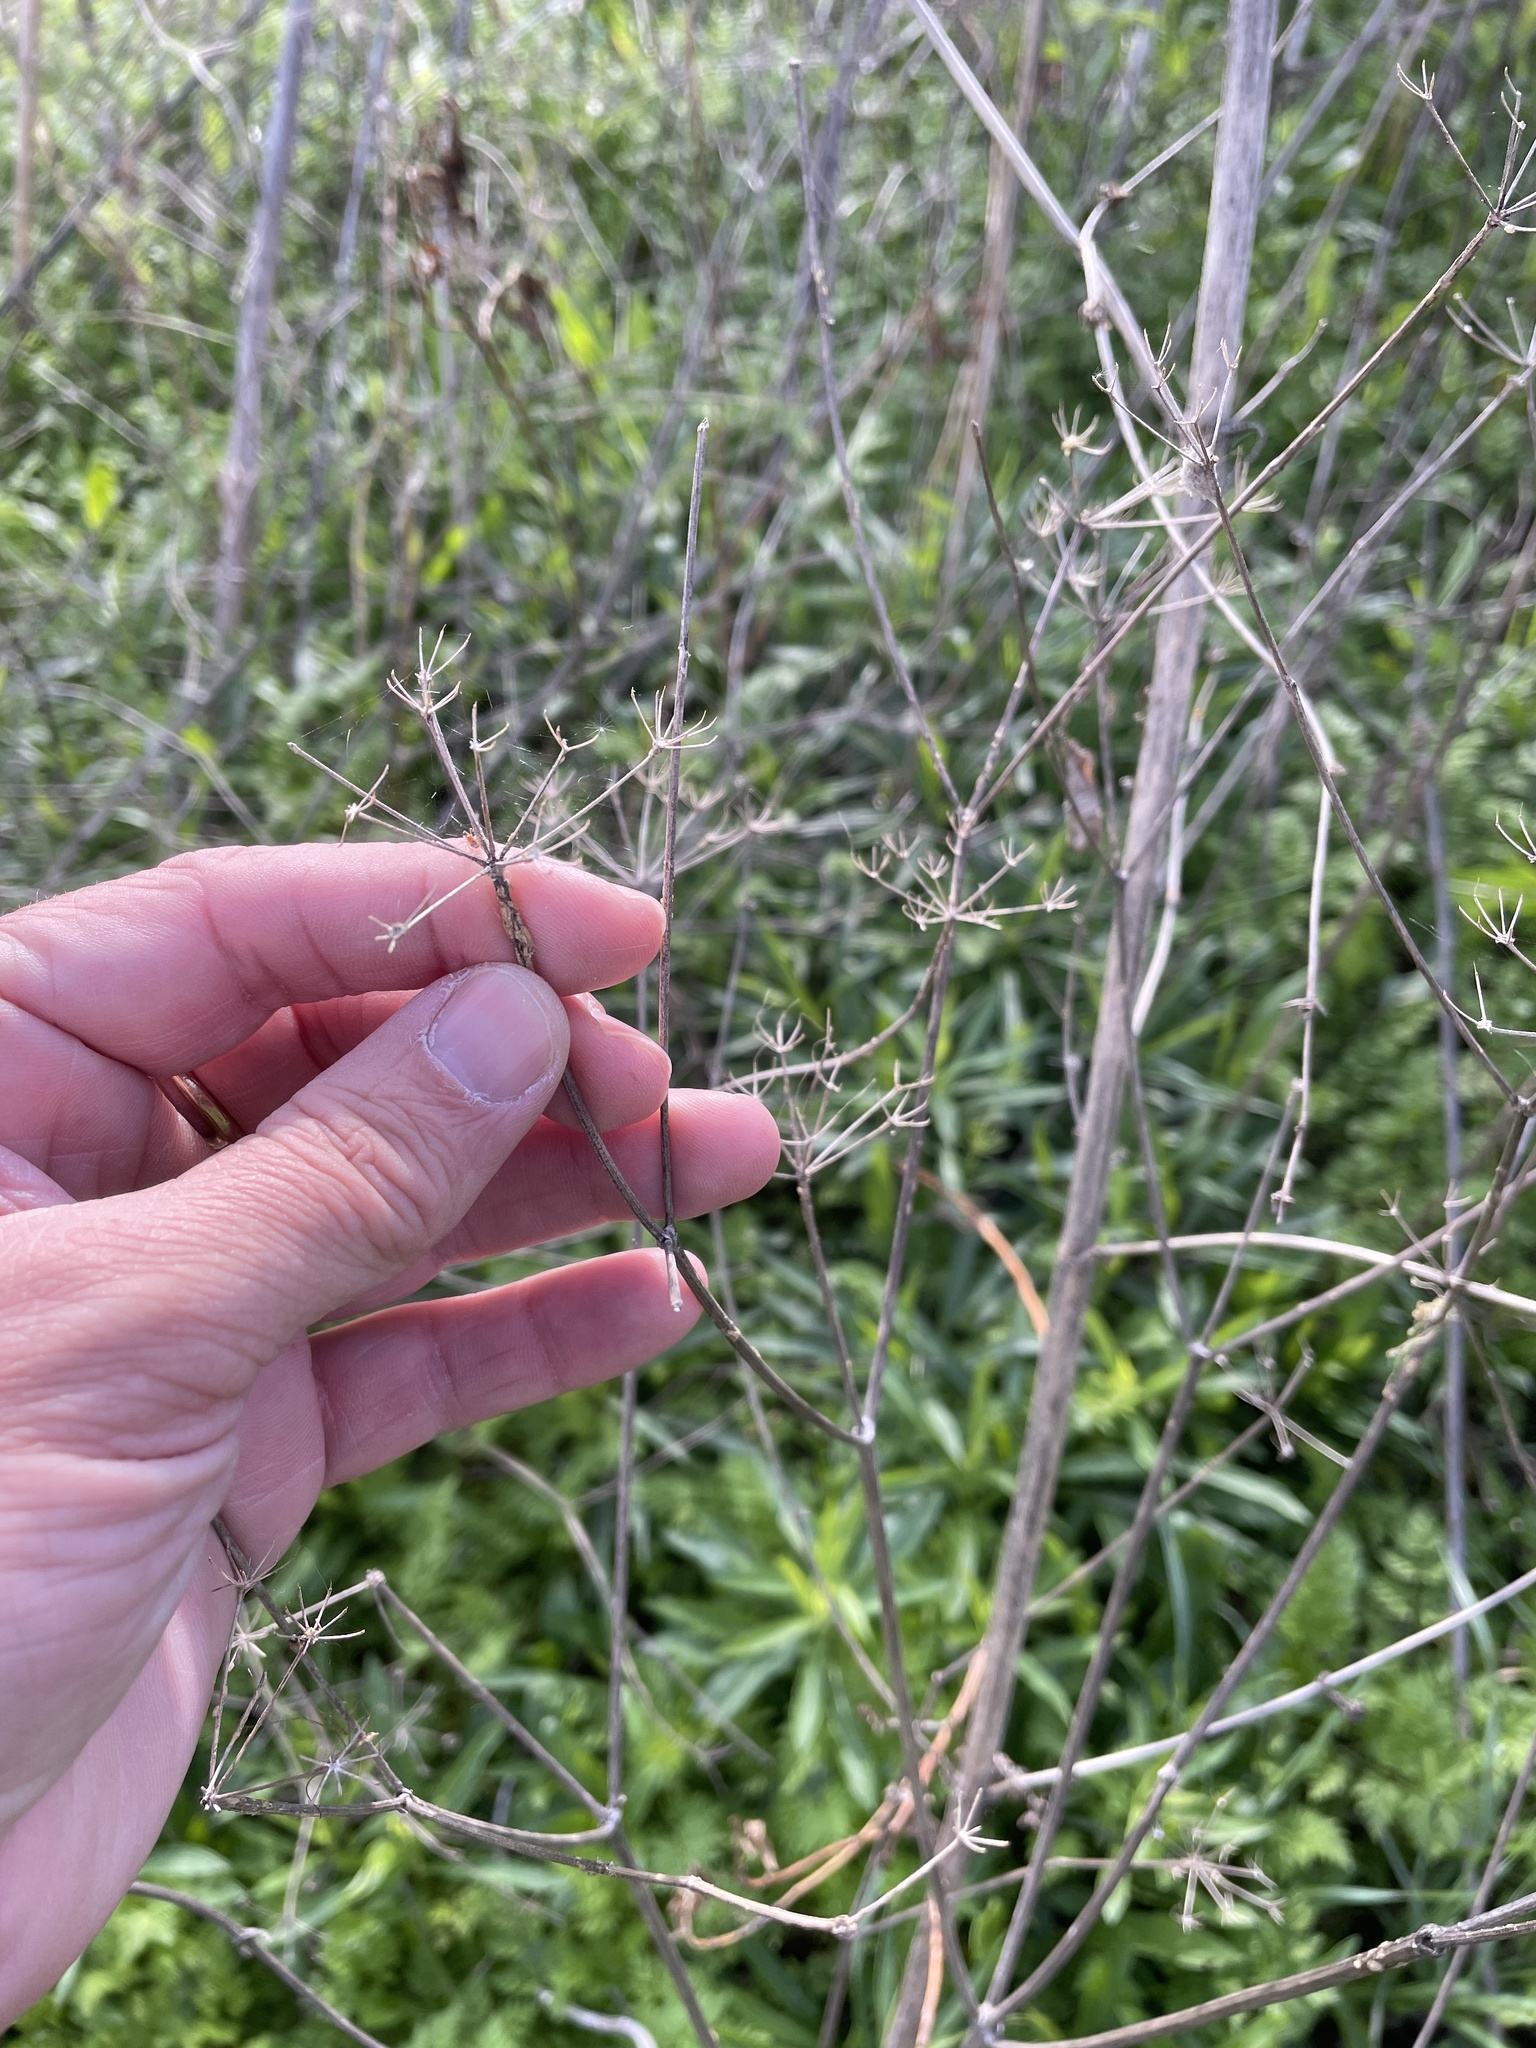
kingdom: Plantae
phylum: Tracheophyta
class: Magnoliopsida
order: Apiales
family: Apiaceae
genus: Polytaenia
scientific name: Polytaenia texana
